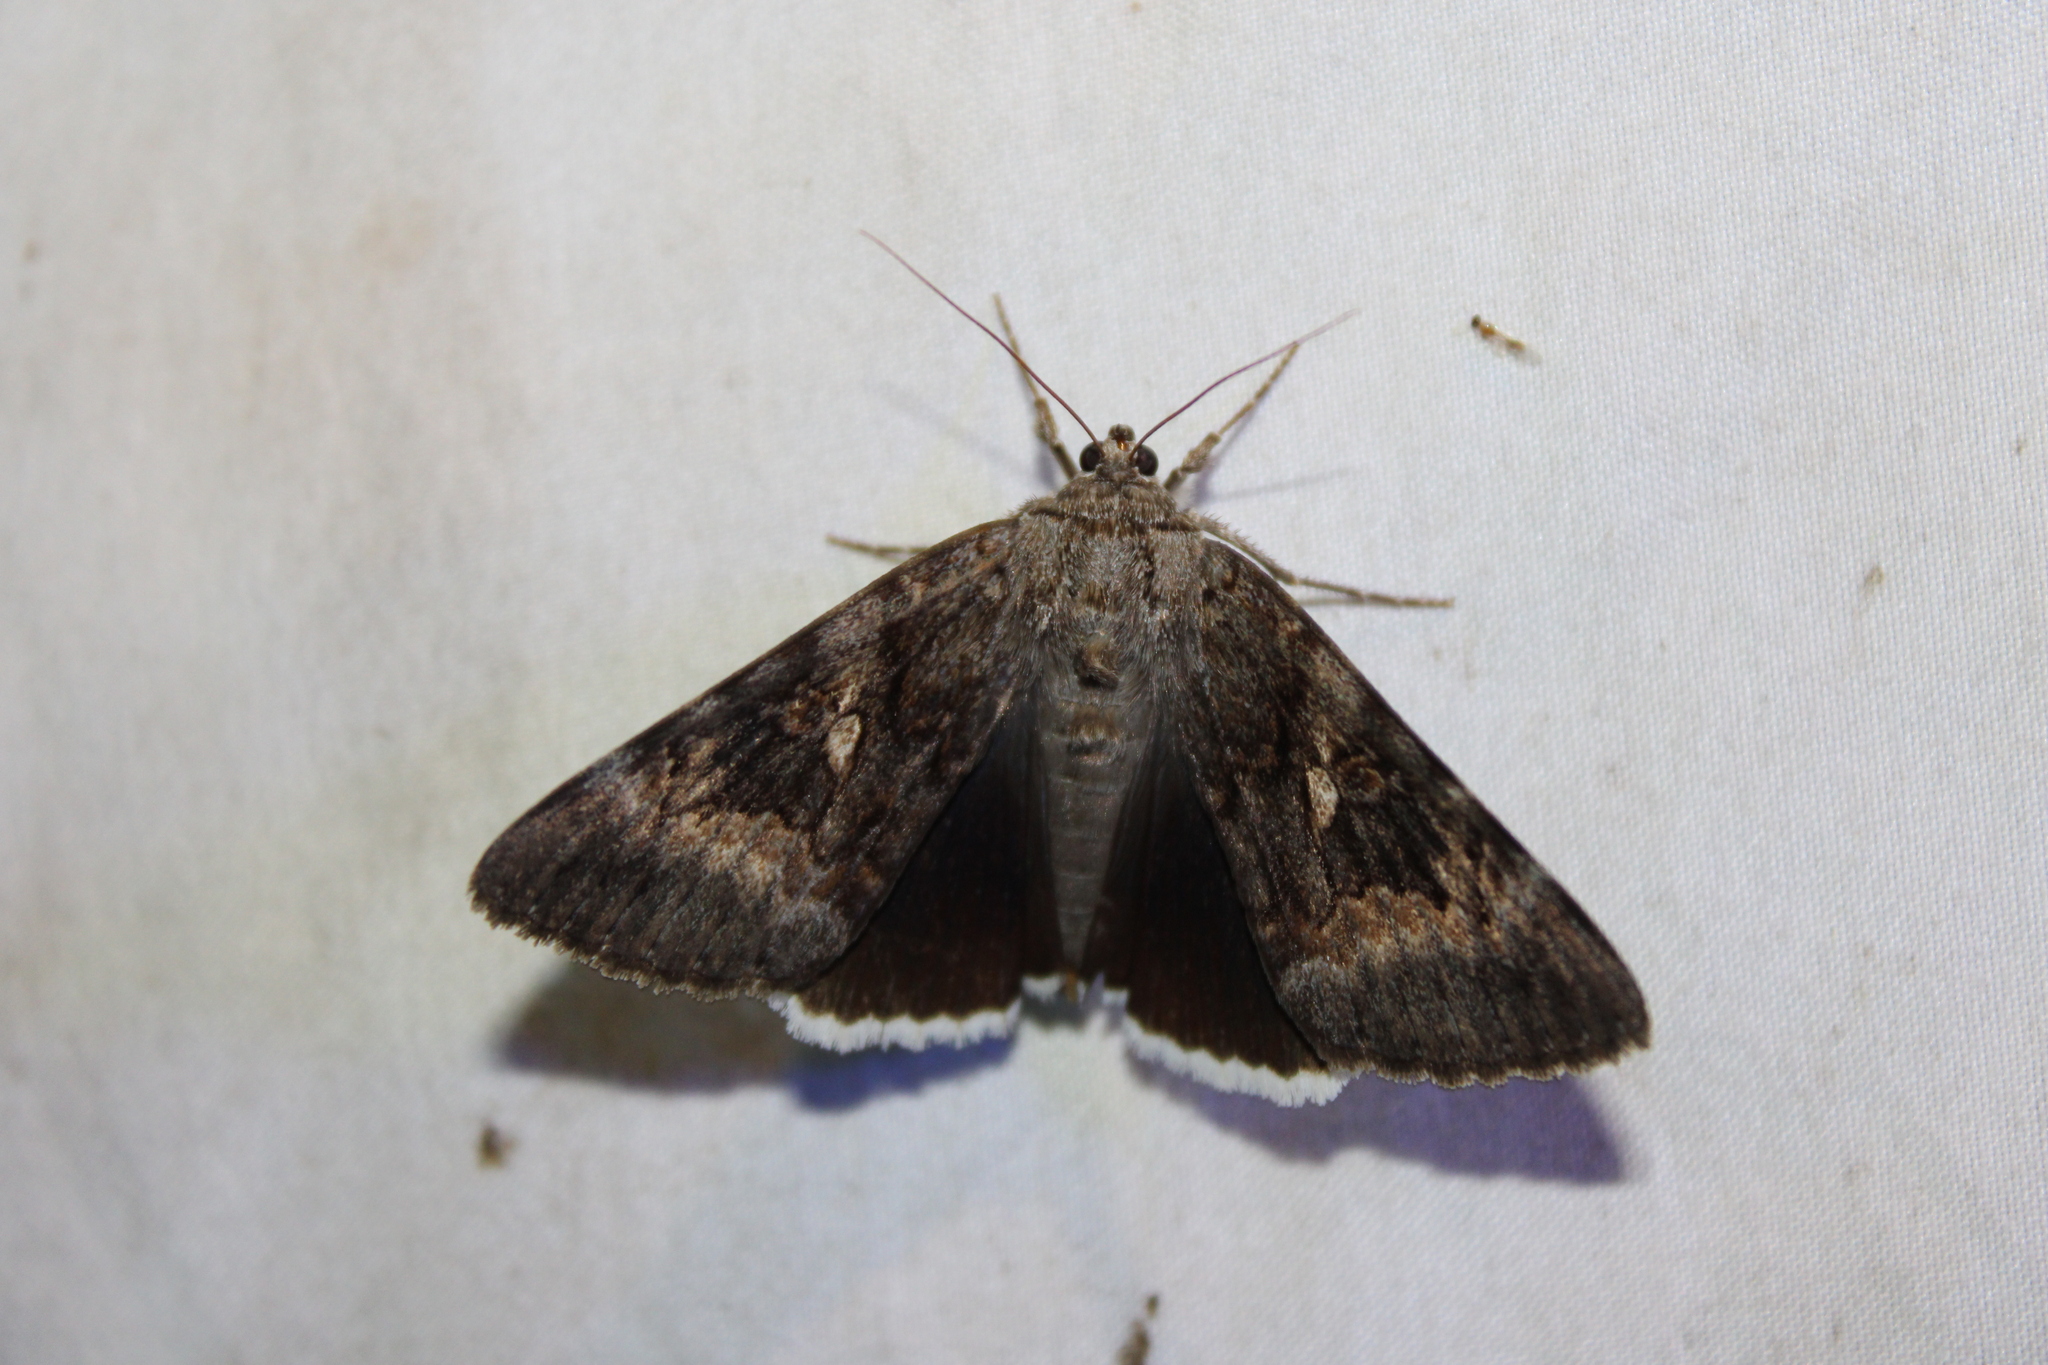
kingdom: Animalia
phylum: Arthropoda
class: Insecta
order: Lepidoptera
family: Erebidae
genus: Catocala
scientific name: Catocala epione
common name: Epione underwing
